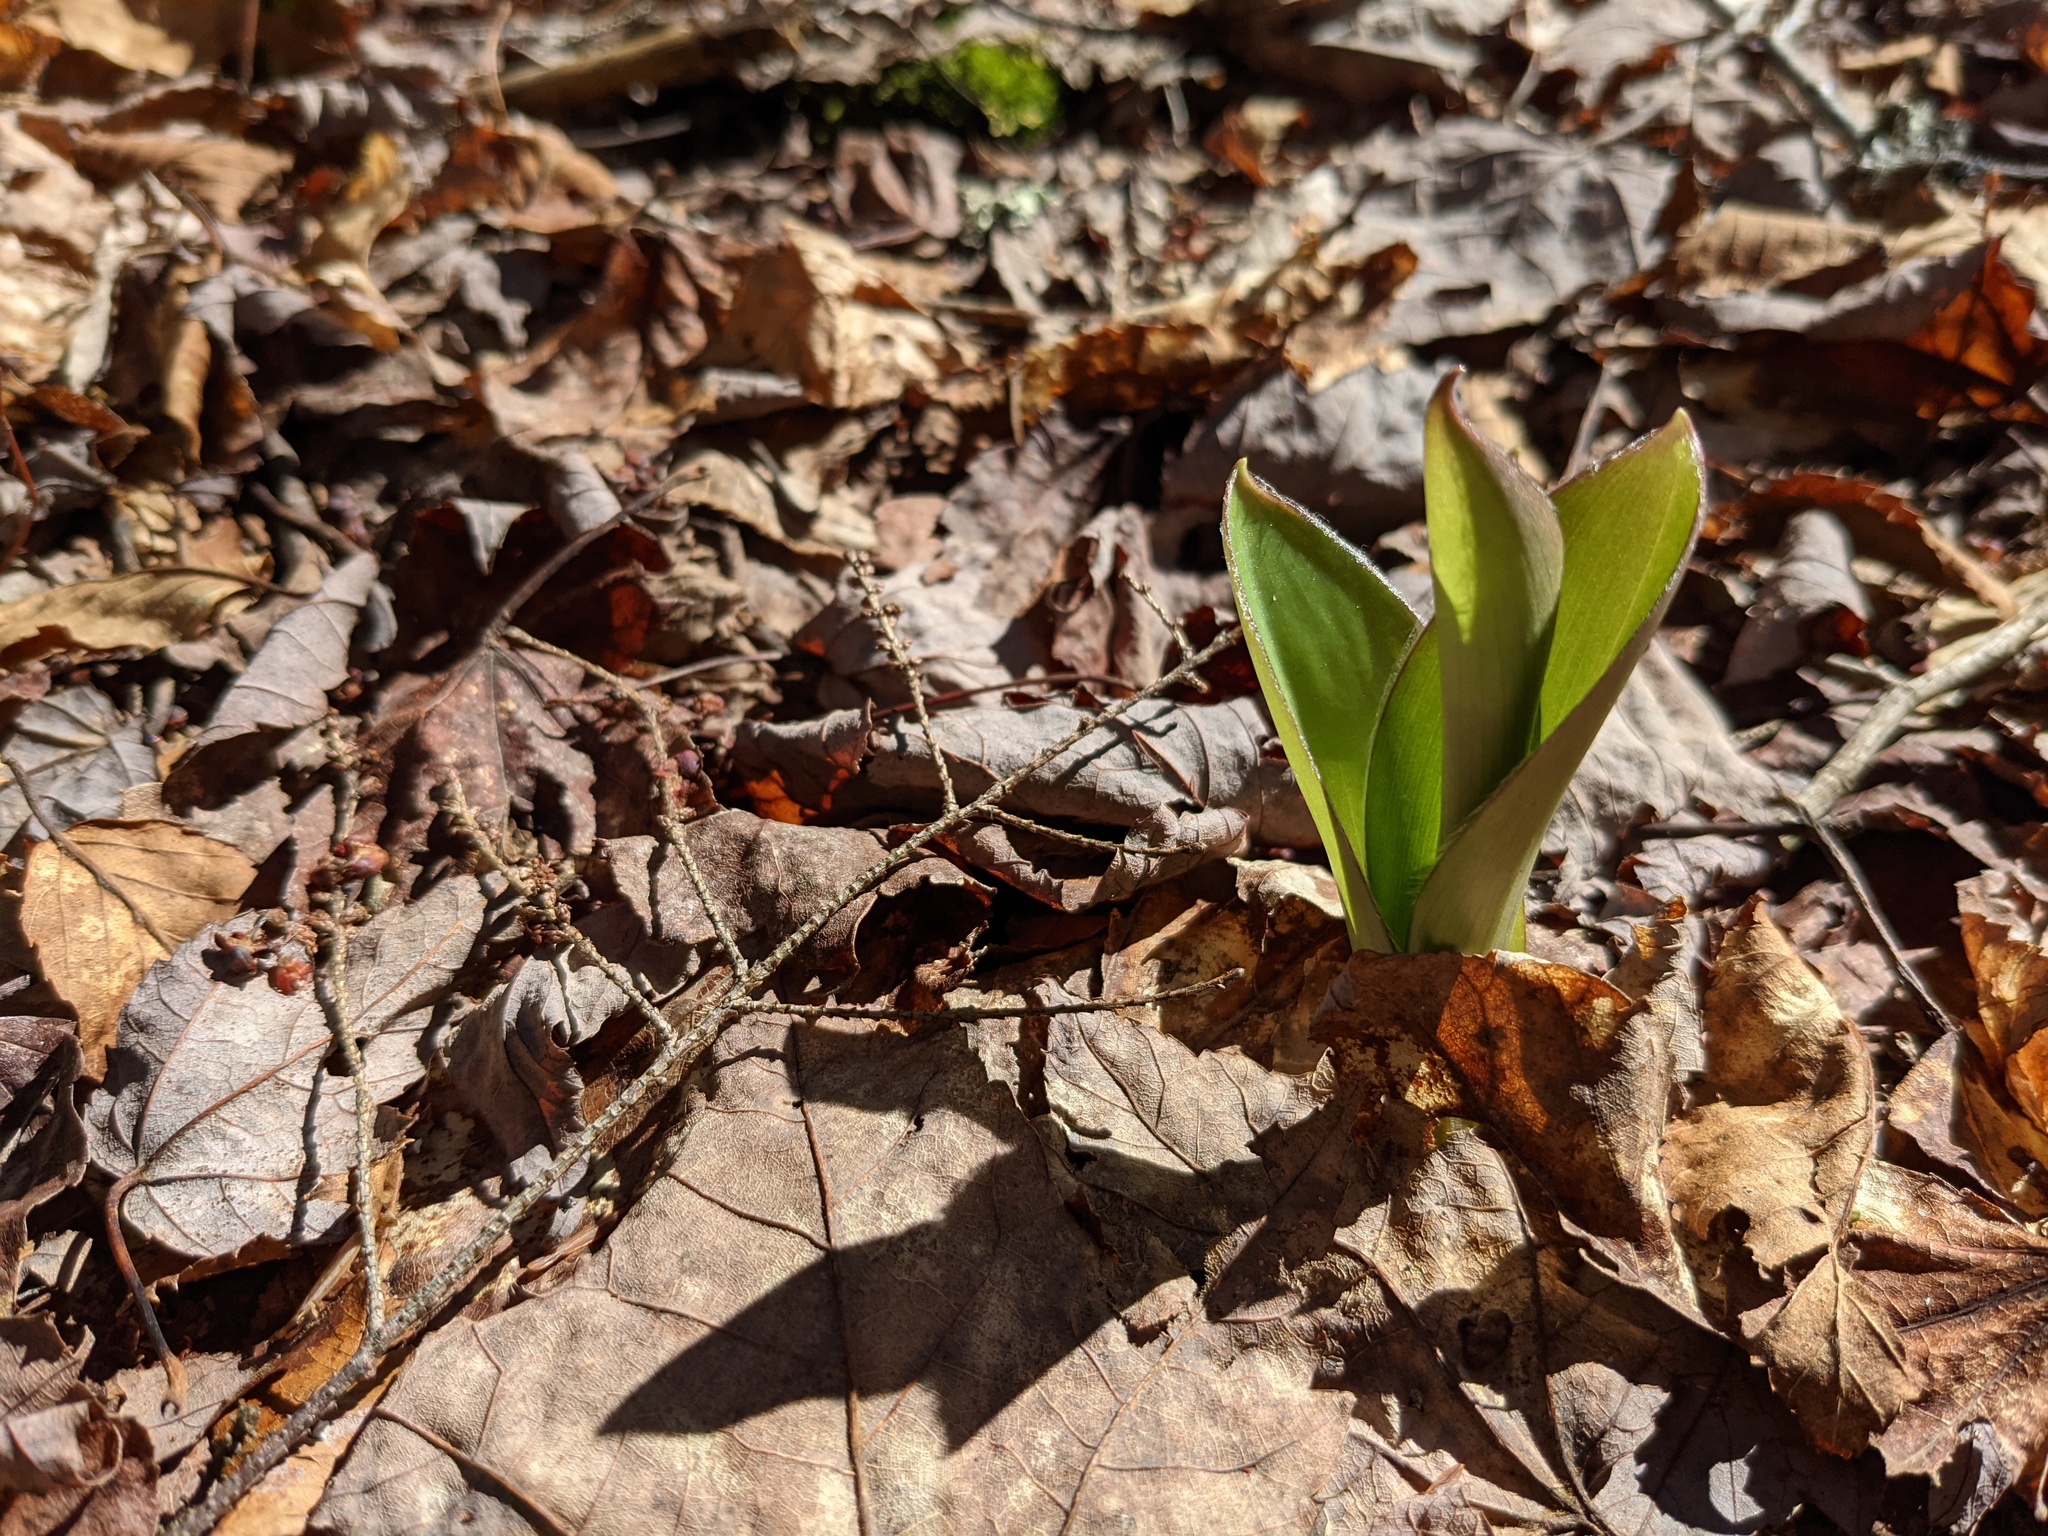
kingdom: Plantae
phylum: Tracheophyta
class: Liliopsida
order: Liliales
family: Liliaceae
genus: Clintonia
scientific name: Clintonia borealis
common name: Yellow clintonia
